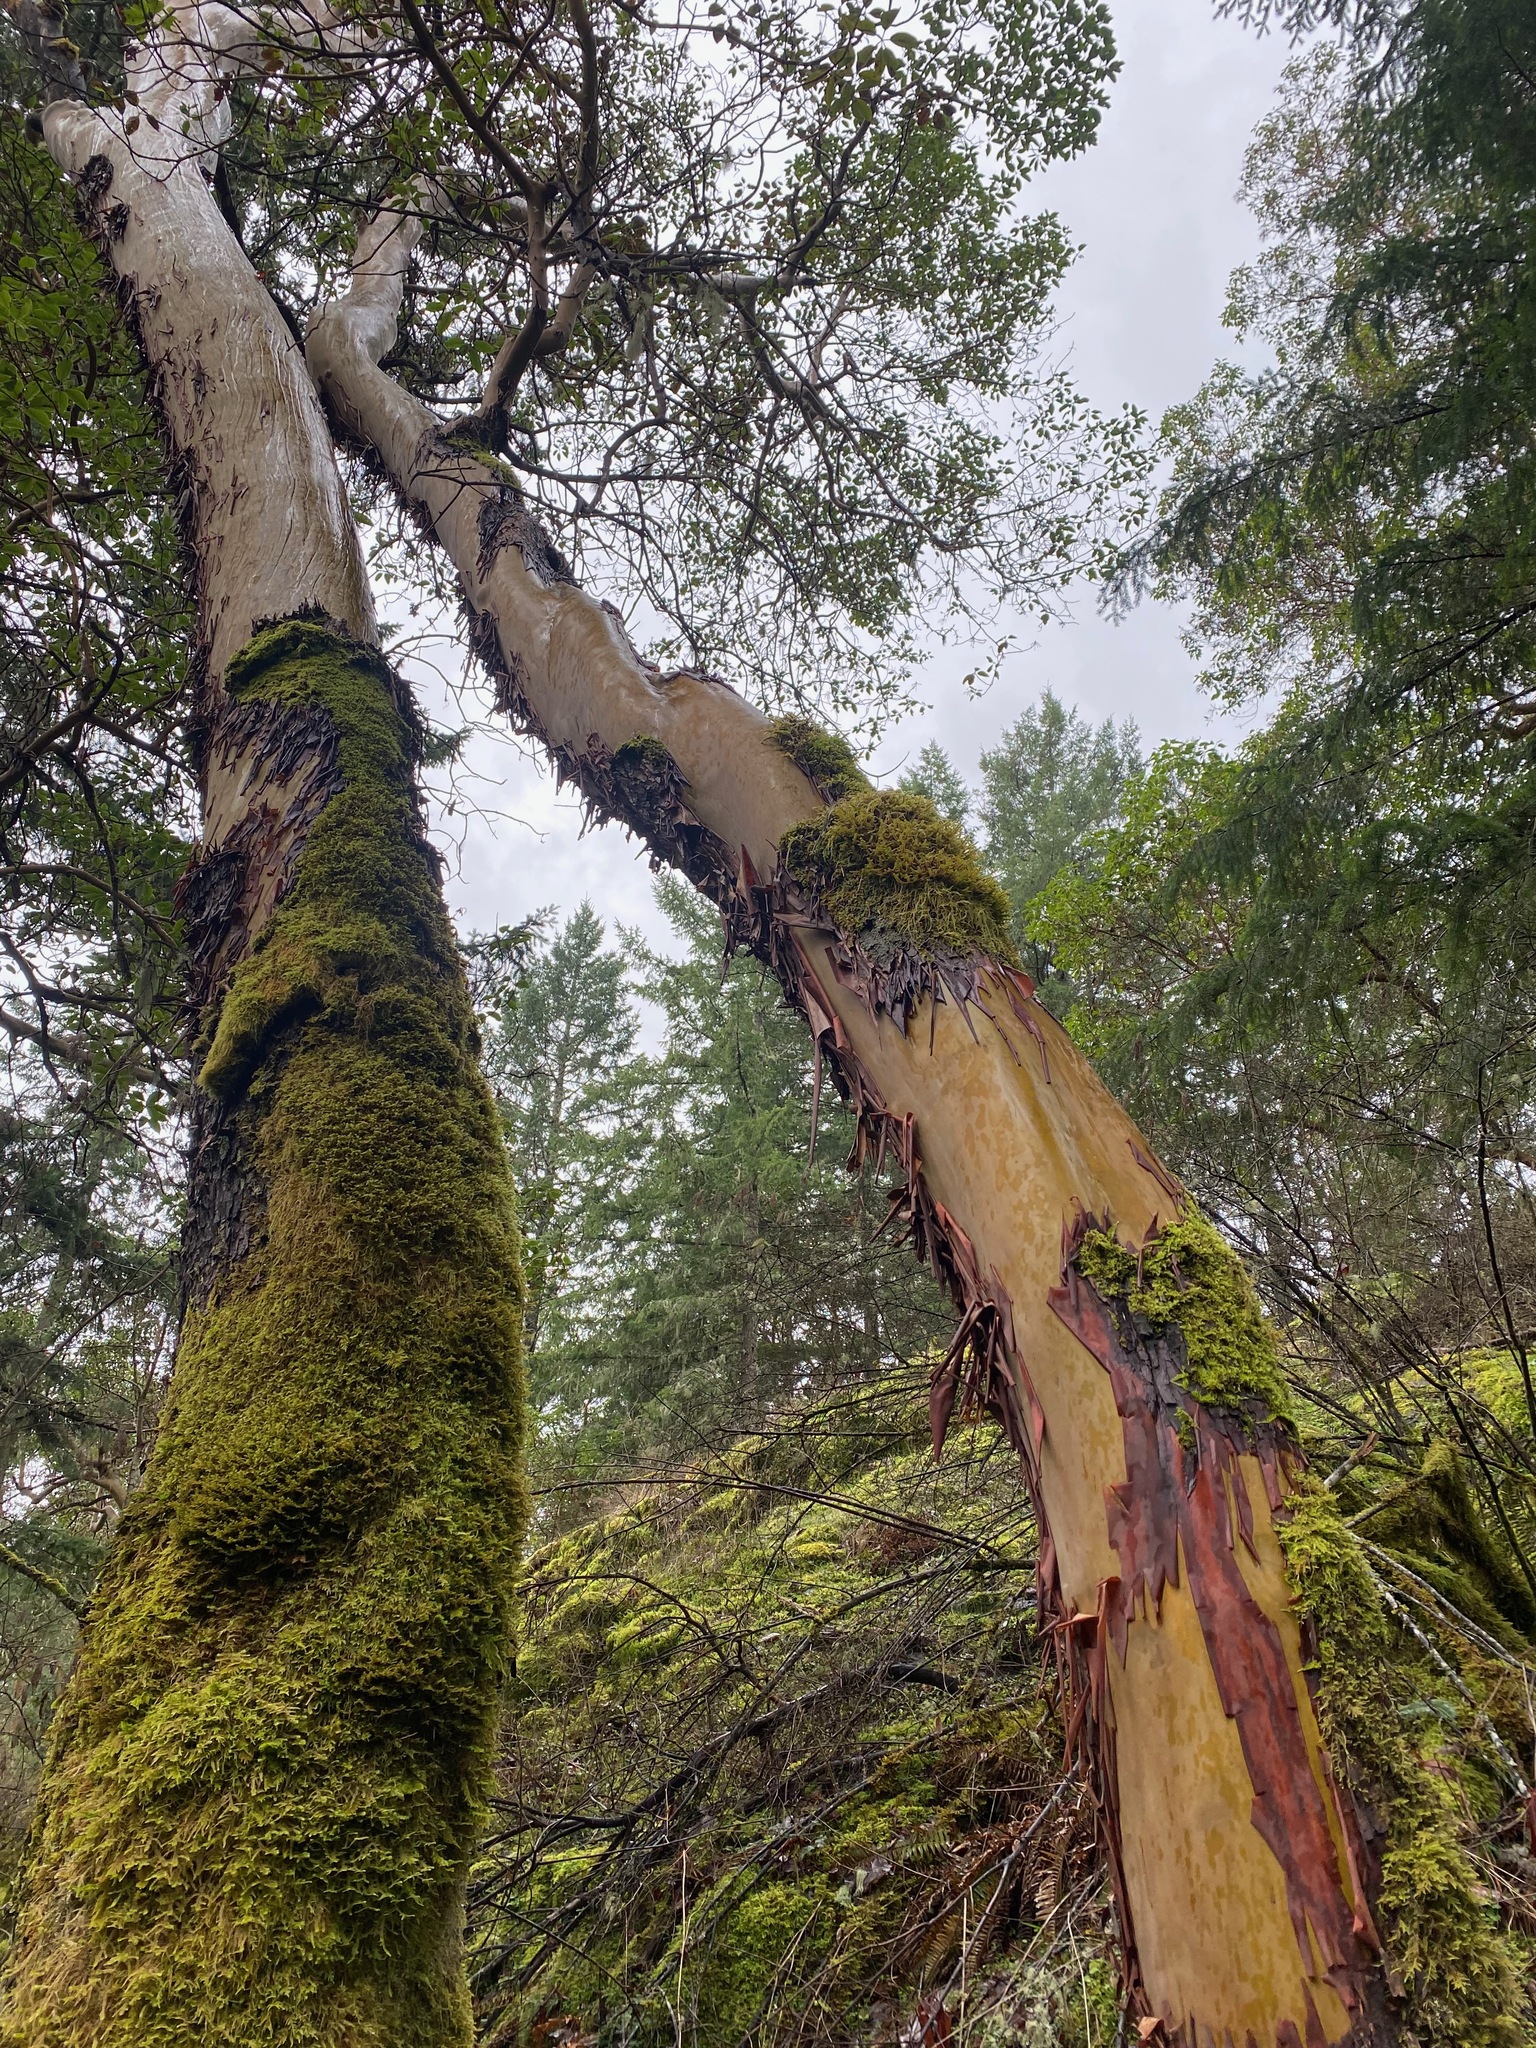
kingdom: Plantae
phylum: Tracheophyta
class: Magnoliopsida
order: Ericales
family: Ericaceae
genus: Arbutus
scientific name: Arbutus menziesii
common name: Pacific madrone
